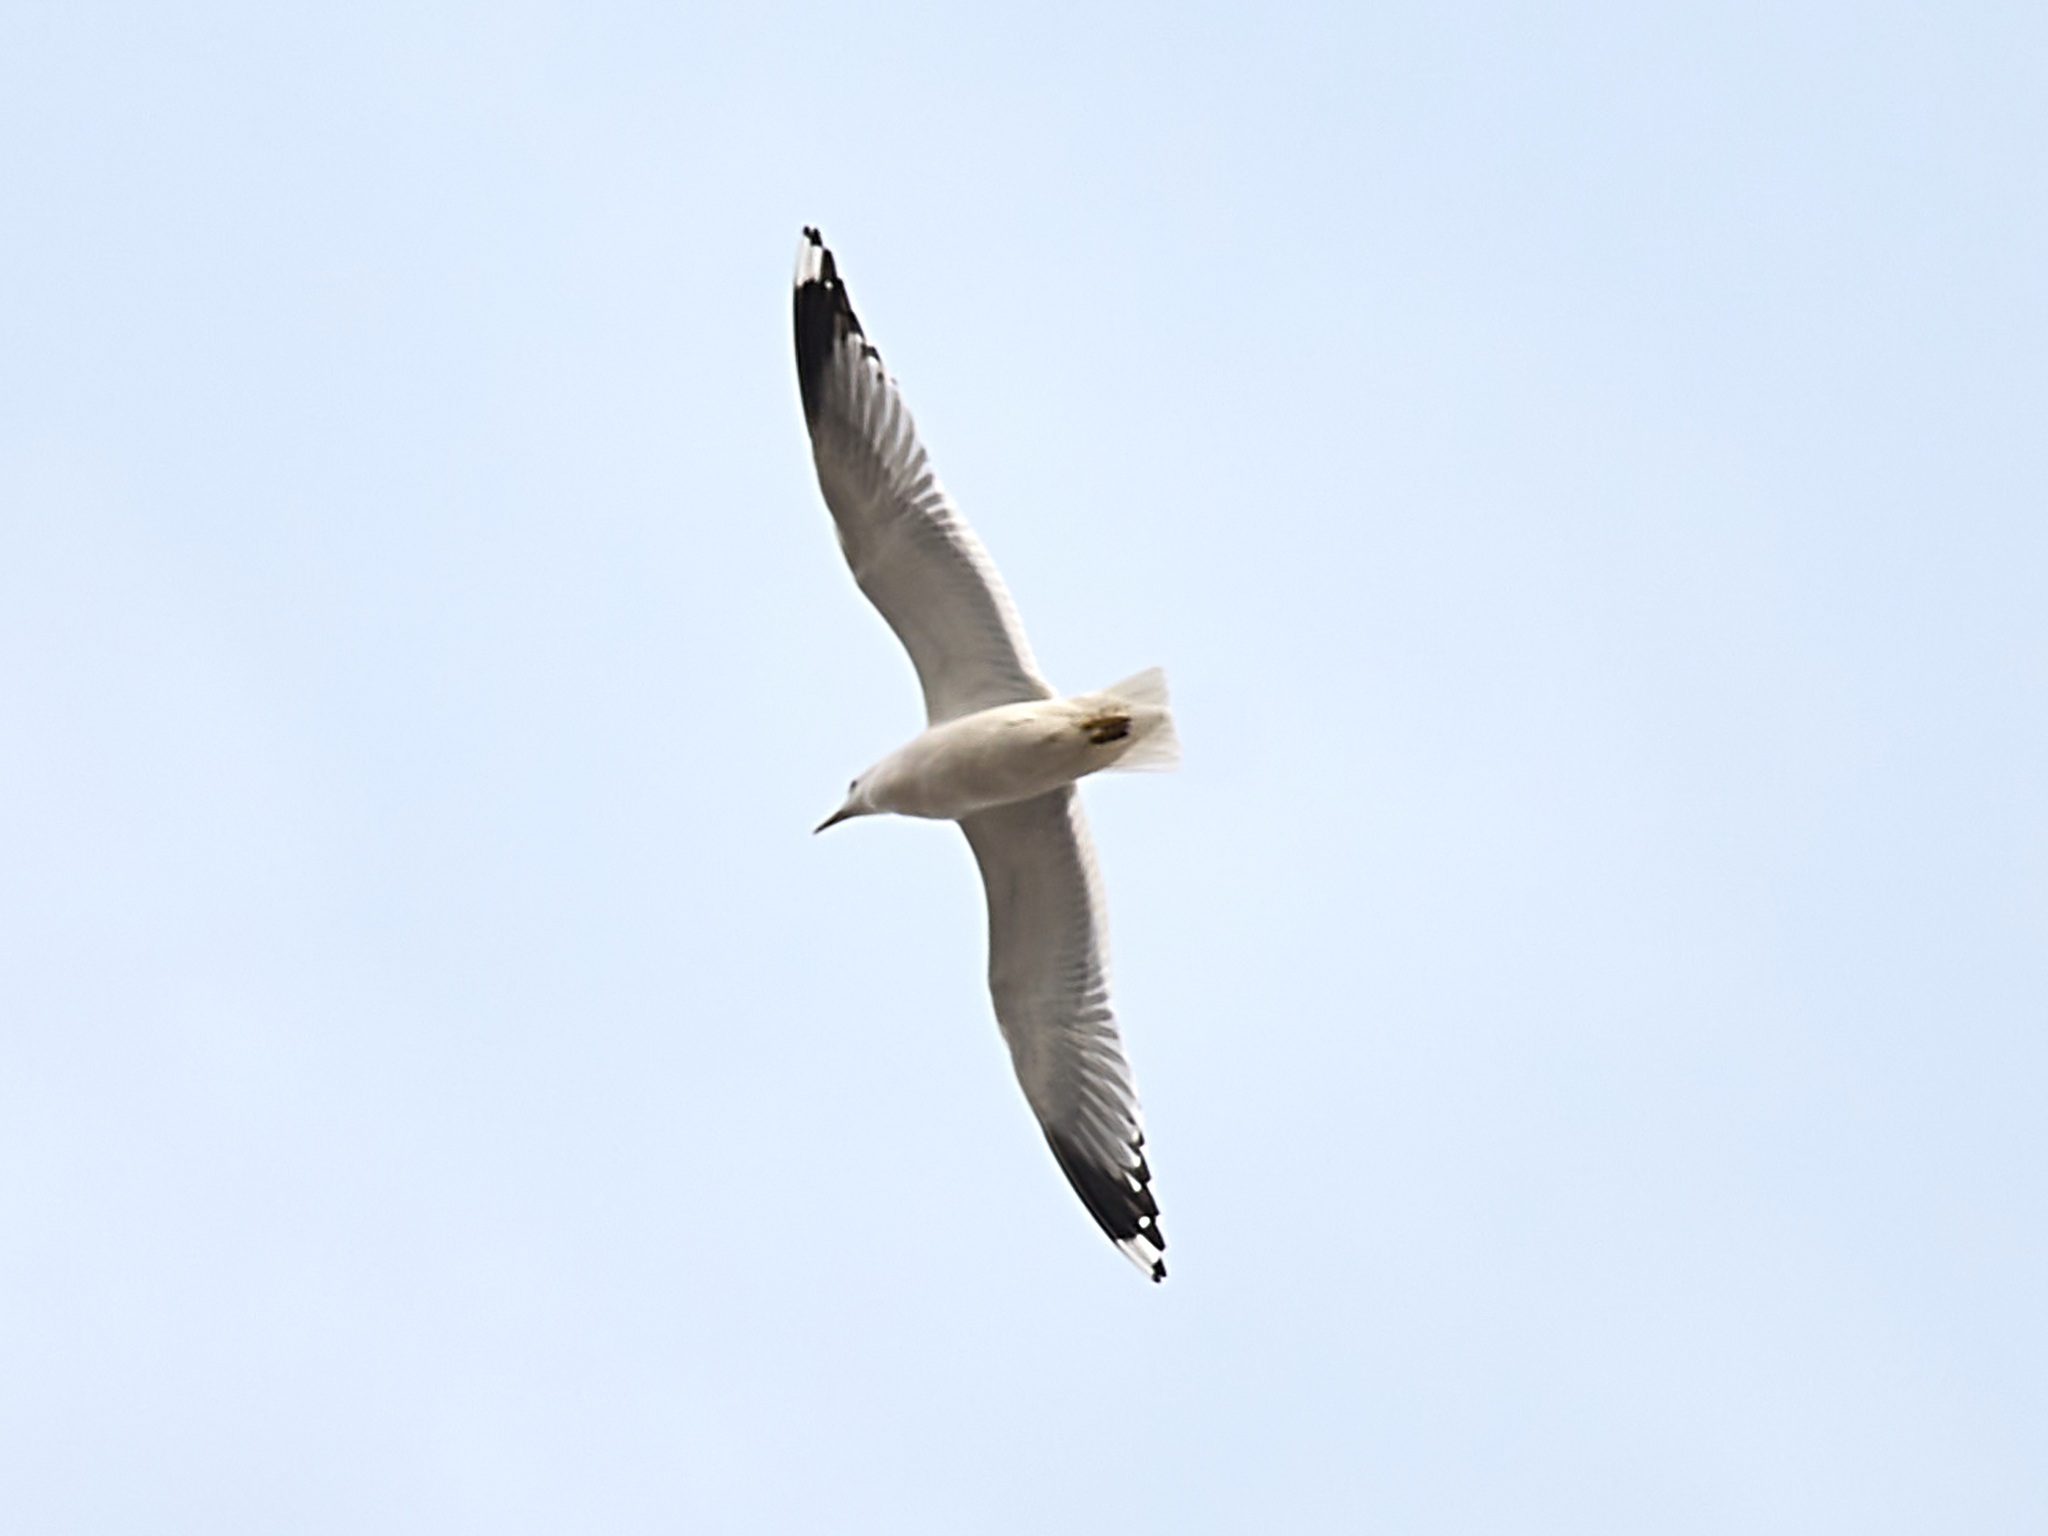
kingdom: Animalia
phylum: Chordata
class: Aves
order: Charadriiformes
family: Laridae
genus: Larus
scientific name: Larus canus
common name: Mew gull
